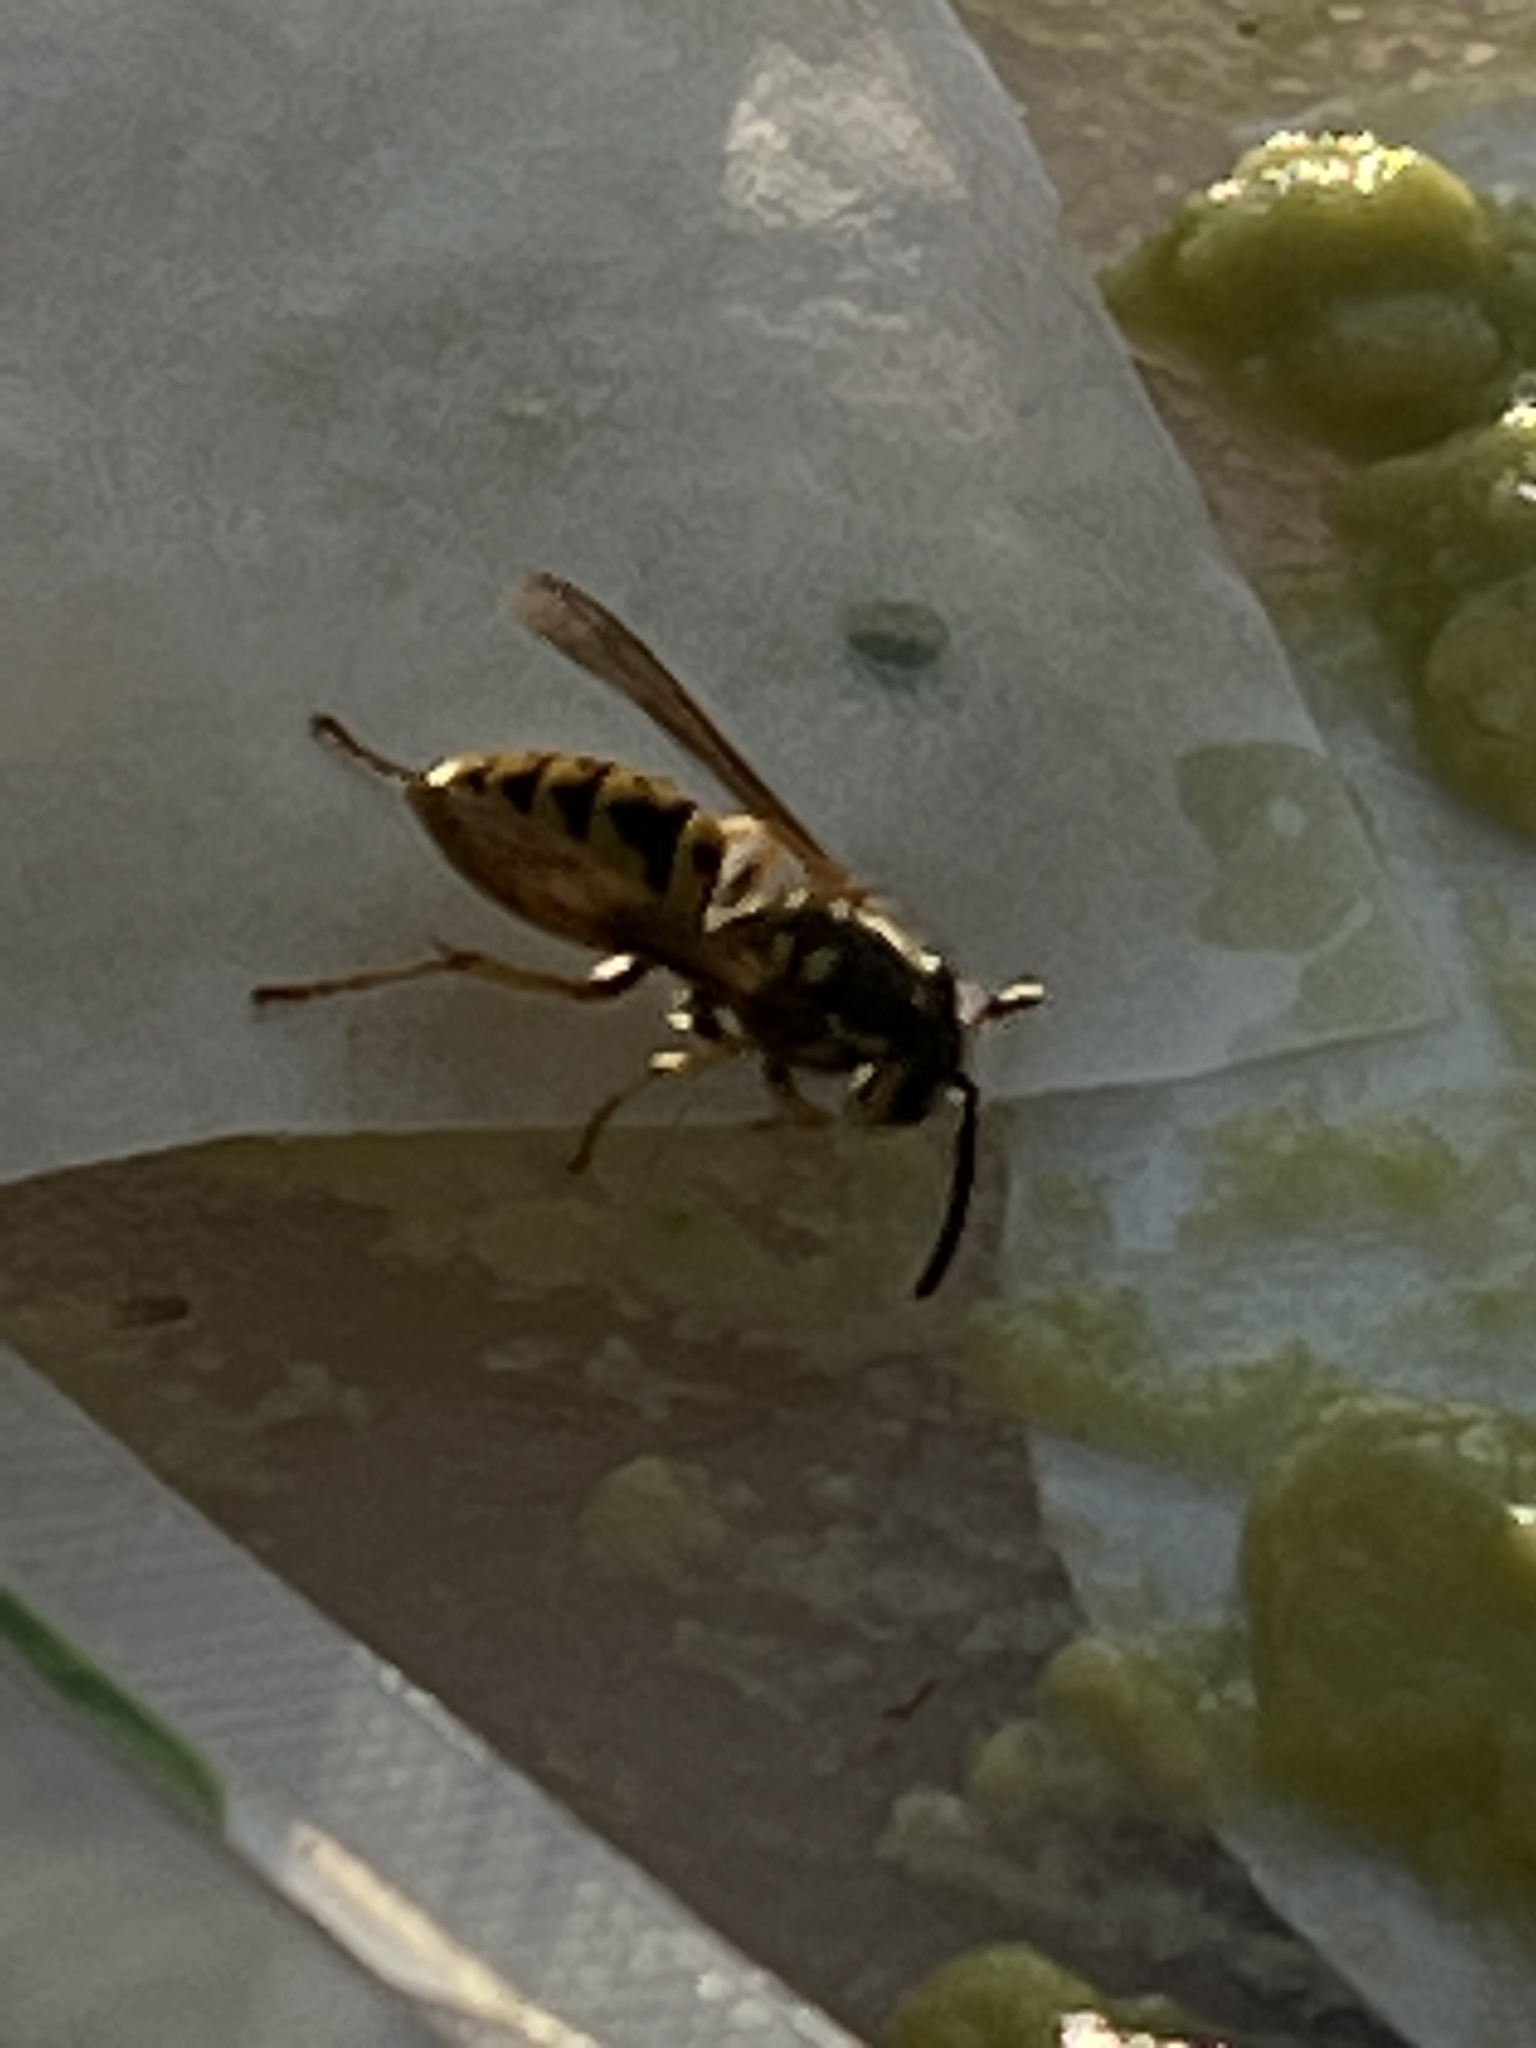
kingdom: Animalia
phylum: Arthropoda
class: Insecta
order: Hymenoptera
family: Vespidae
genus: Vespula
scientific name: Vespula germanica
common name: German wasp
